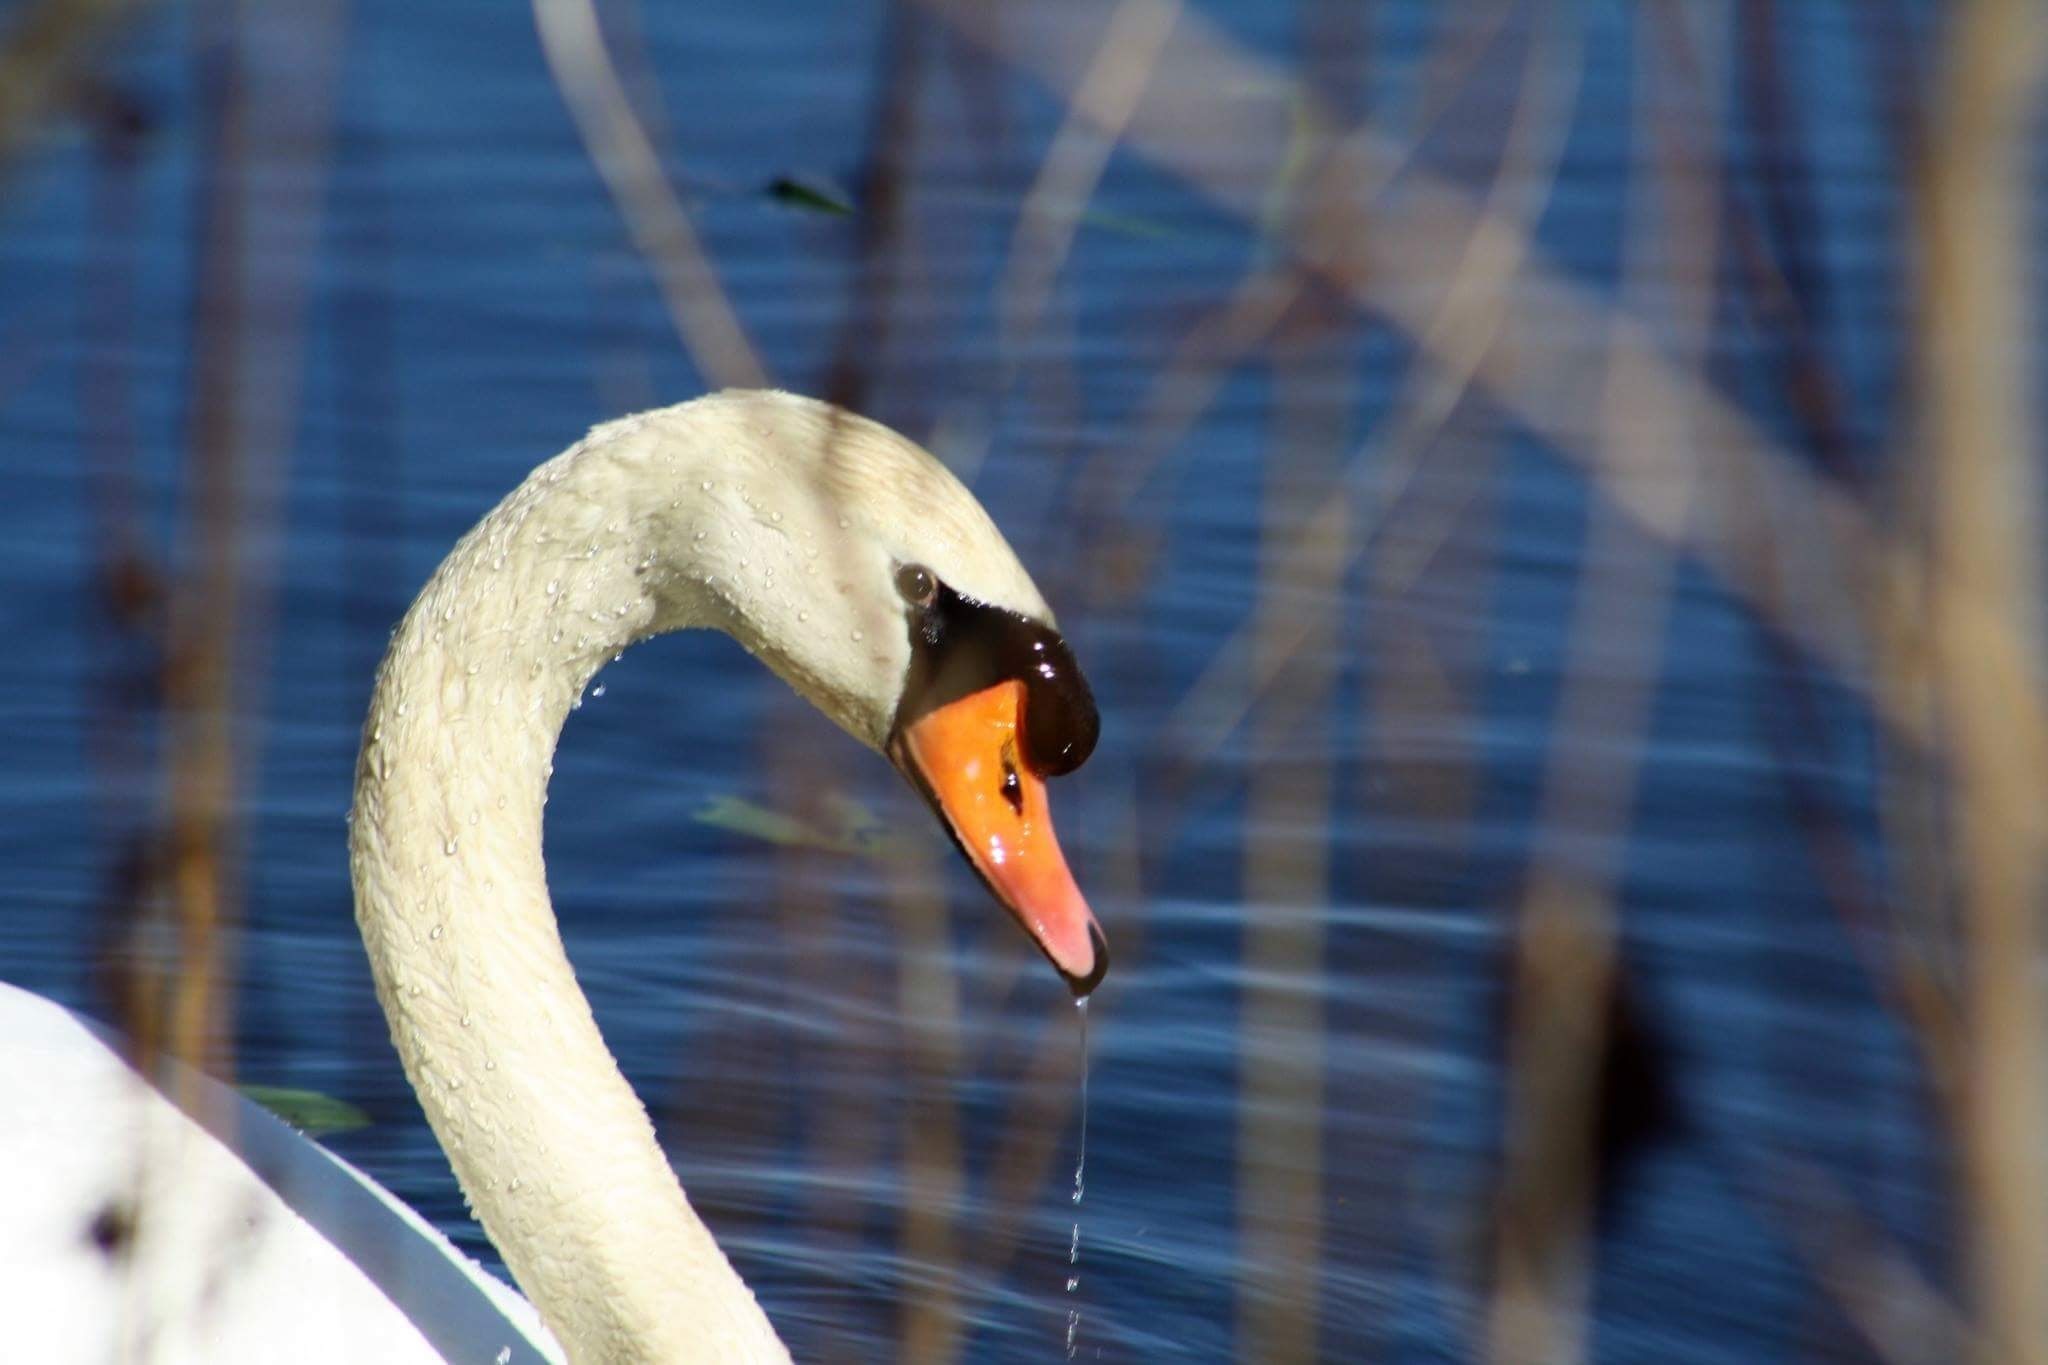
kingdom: Animalia
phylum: Chordata
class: Aves
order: Anseriformes
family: Anatidae
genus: Cygnus
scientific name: Cygnus olor
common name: Mute swan
